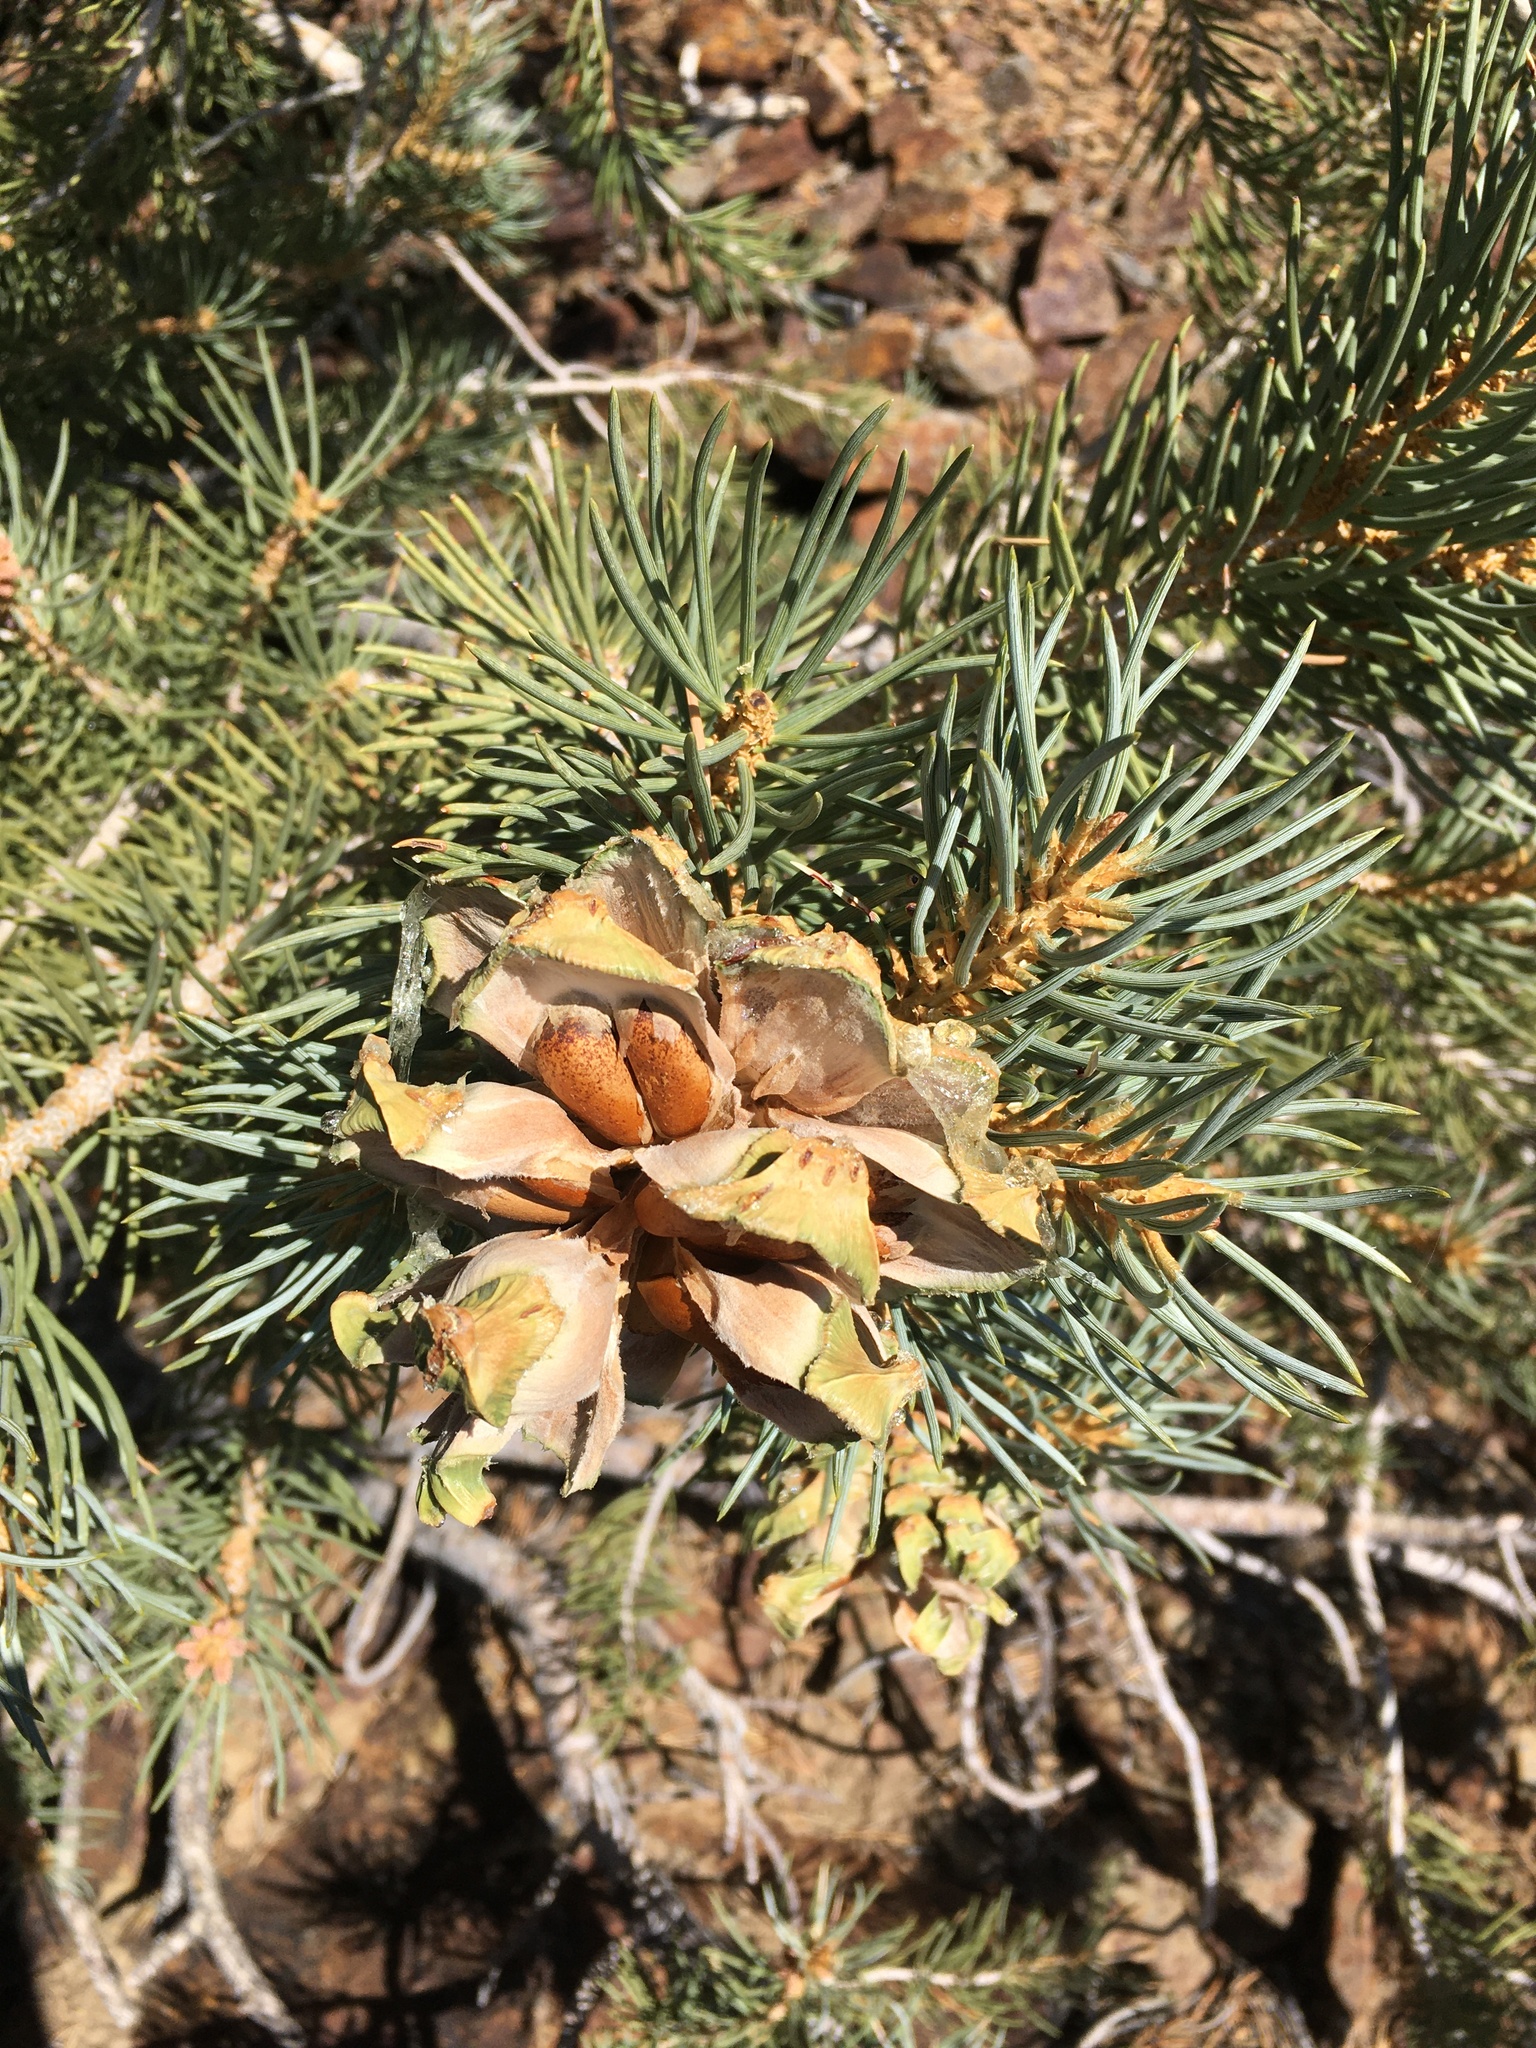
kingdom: Plantae
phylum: Tracheophyta
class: Pinopsida
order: Pinales
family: Pinaceae
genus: Pinus
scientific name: Pinus monophylla
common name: One-leaved nut pine
